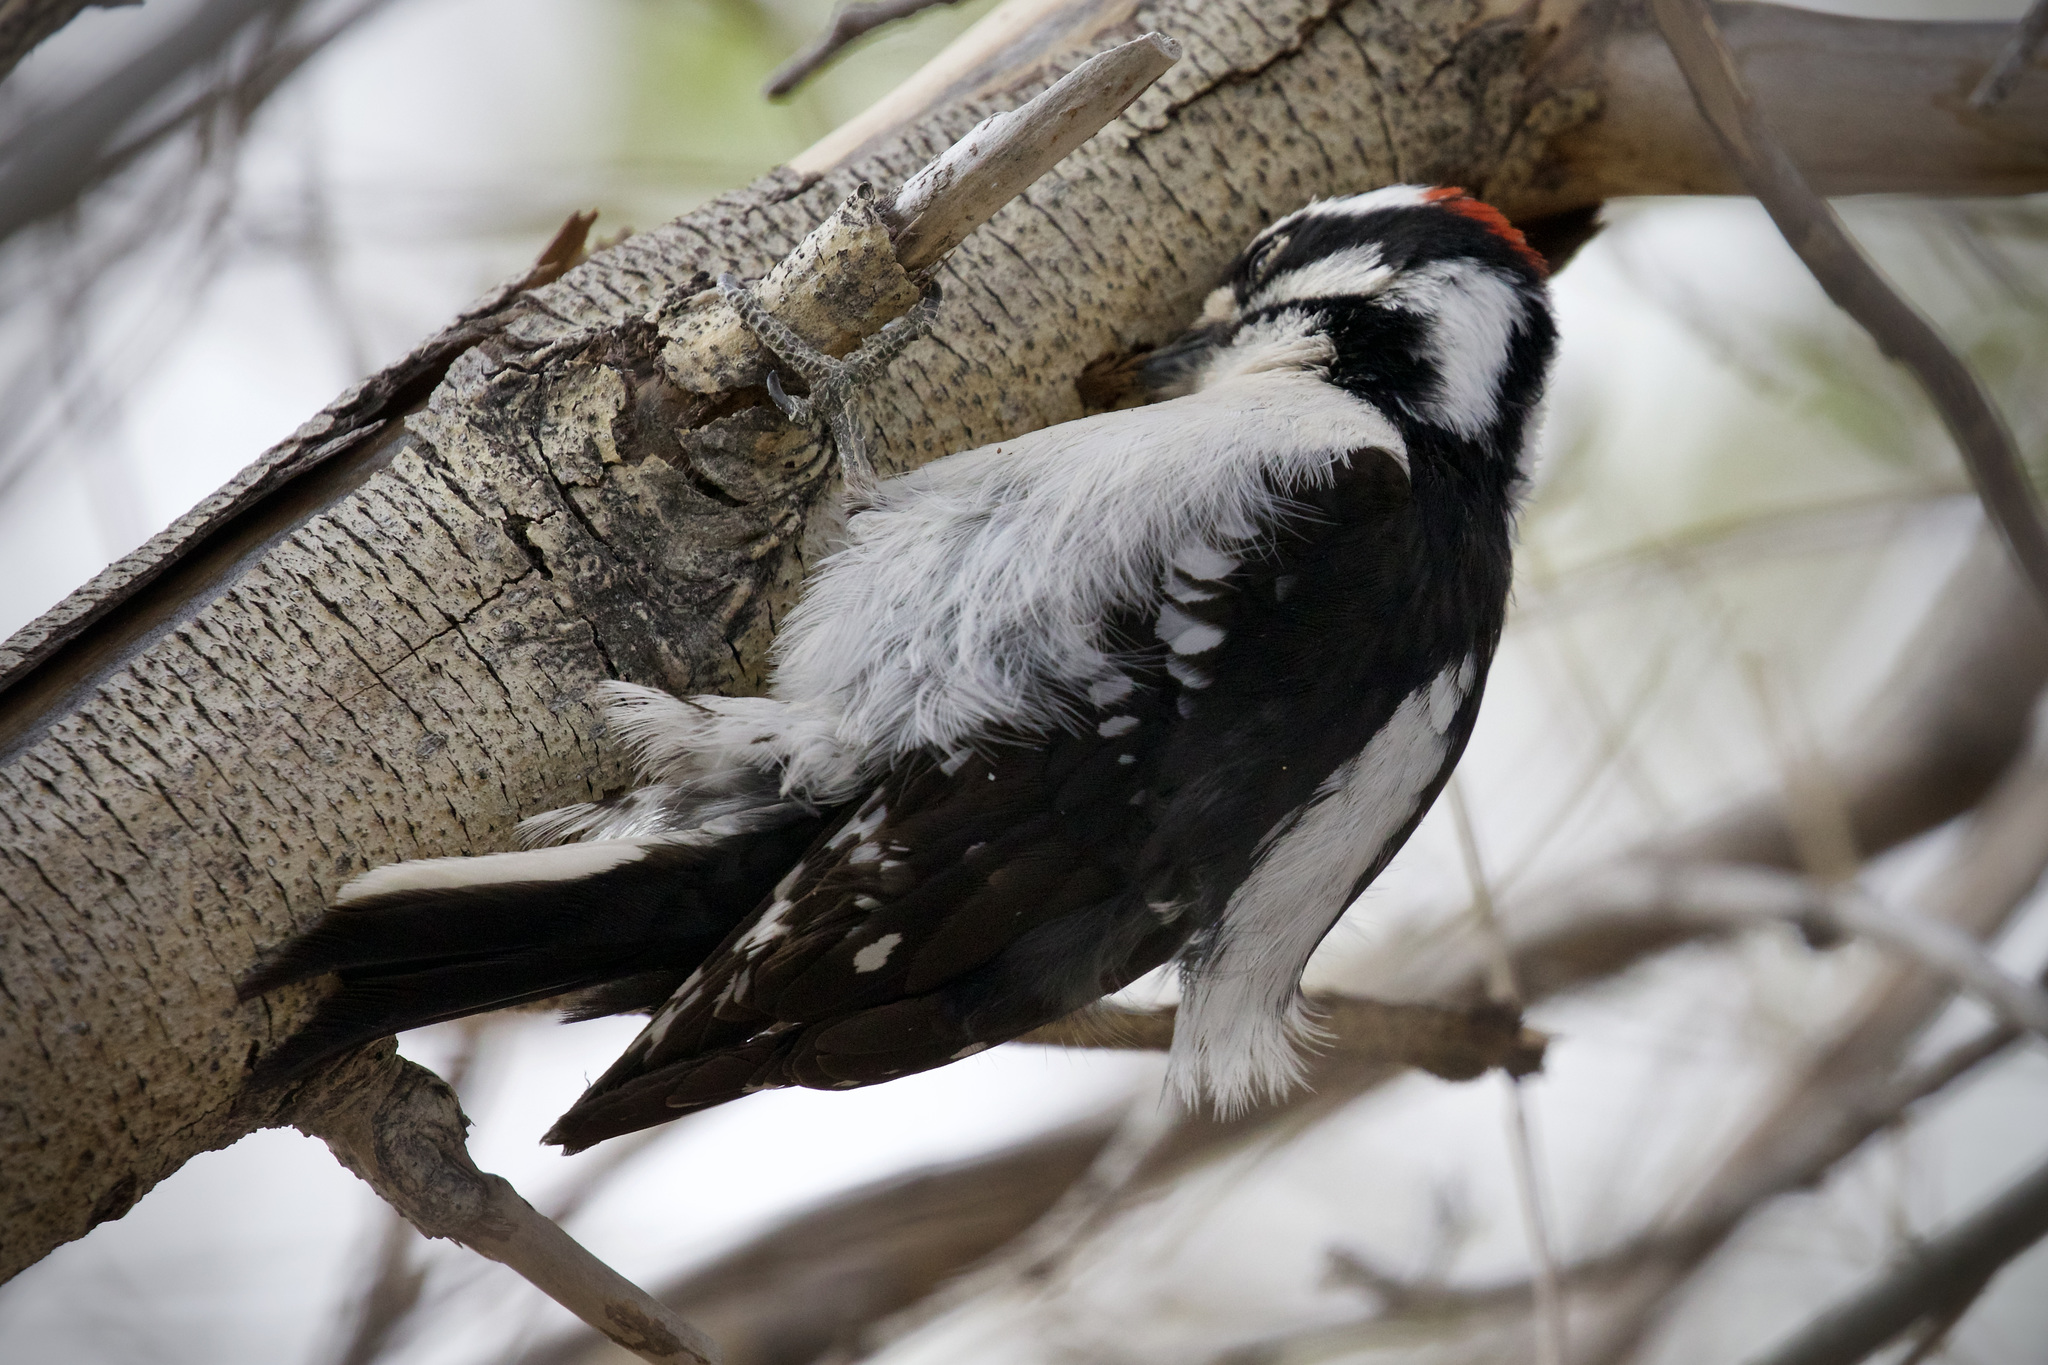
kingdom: Animalia
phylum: Chordata
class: Aves
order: Piciformes
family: Picidae
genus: Dryobates
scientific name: Dryobates pubescens
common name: Downy woodpecker
